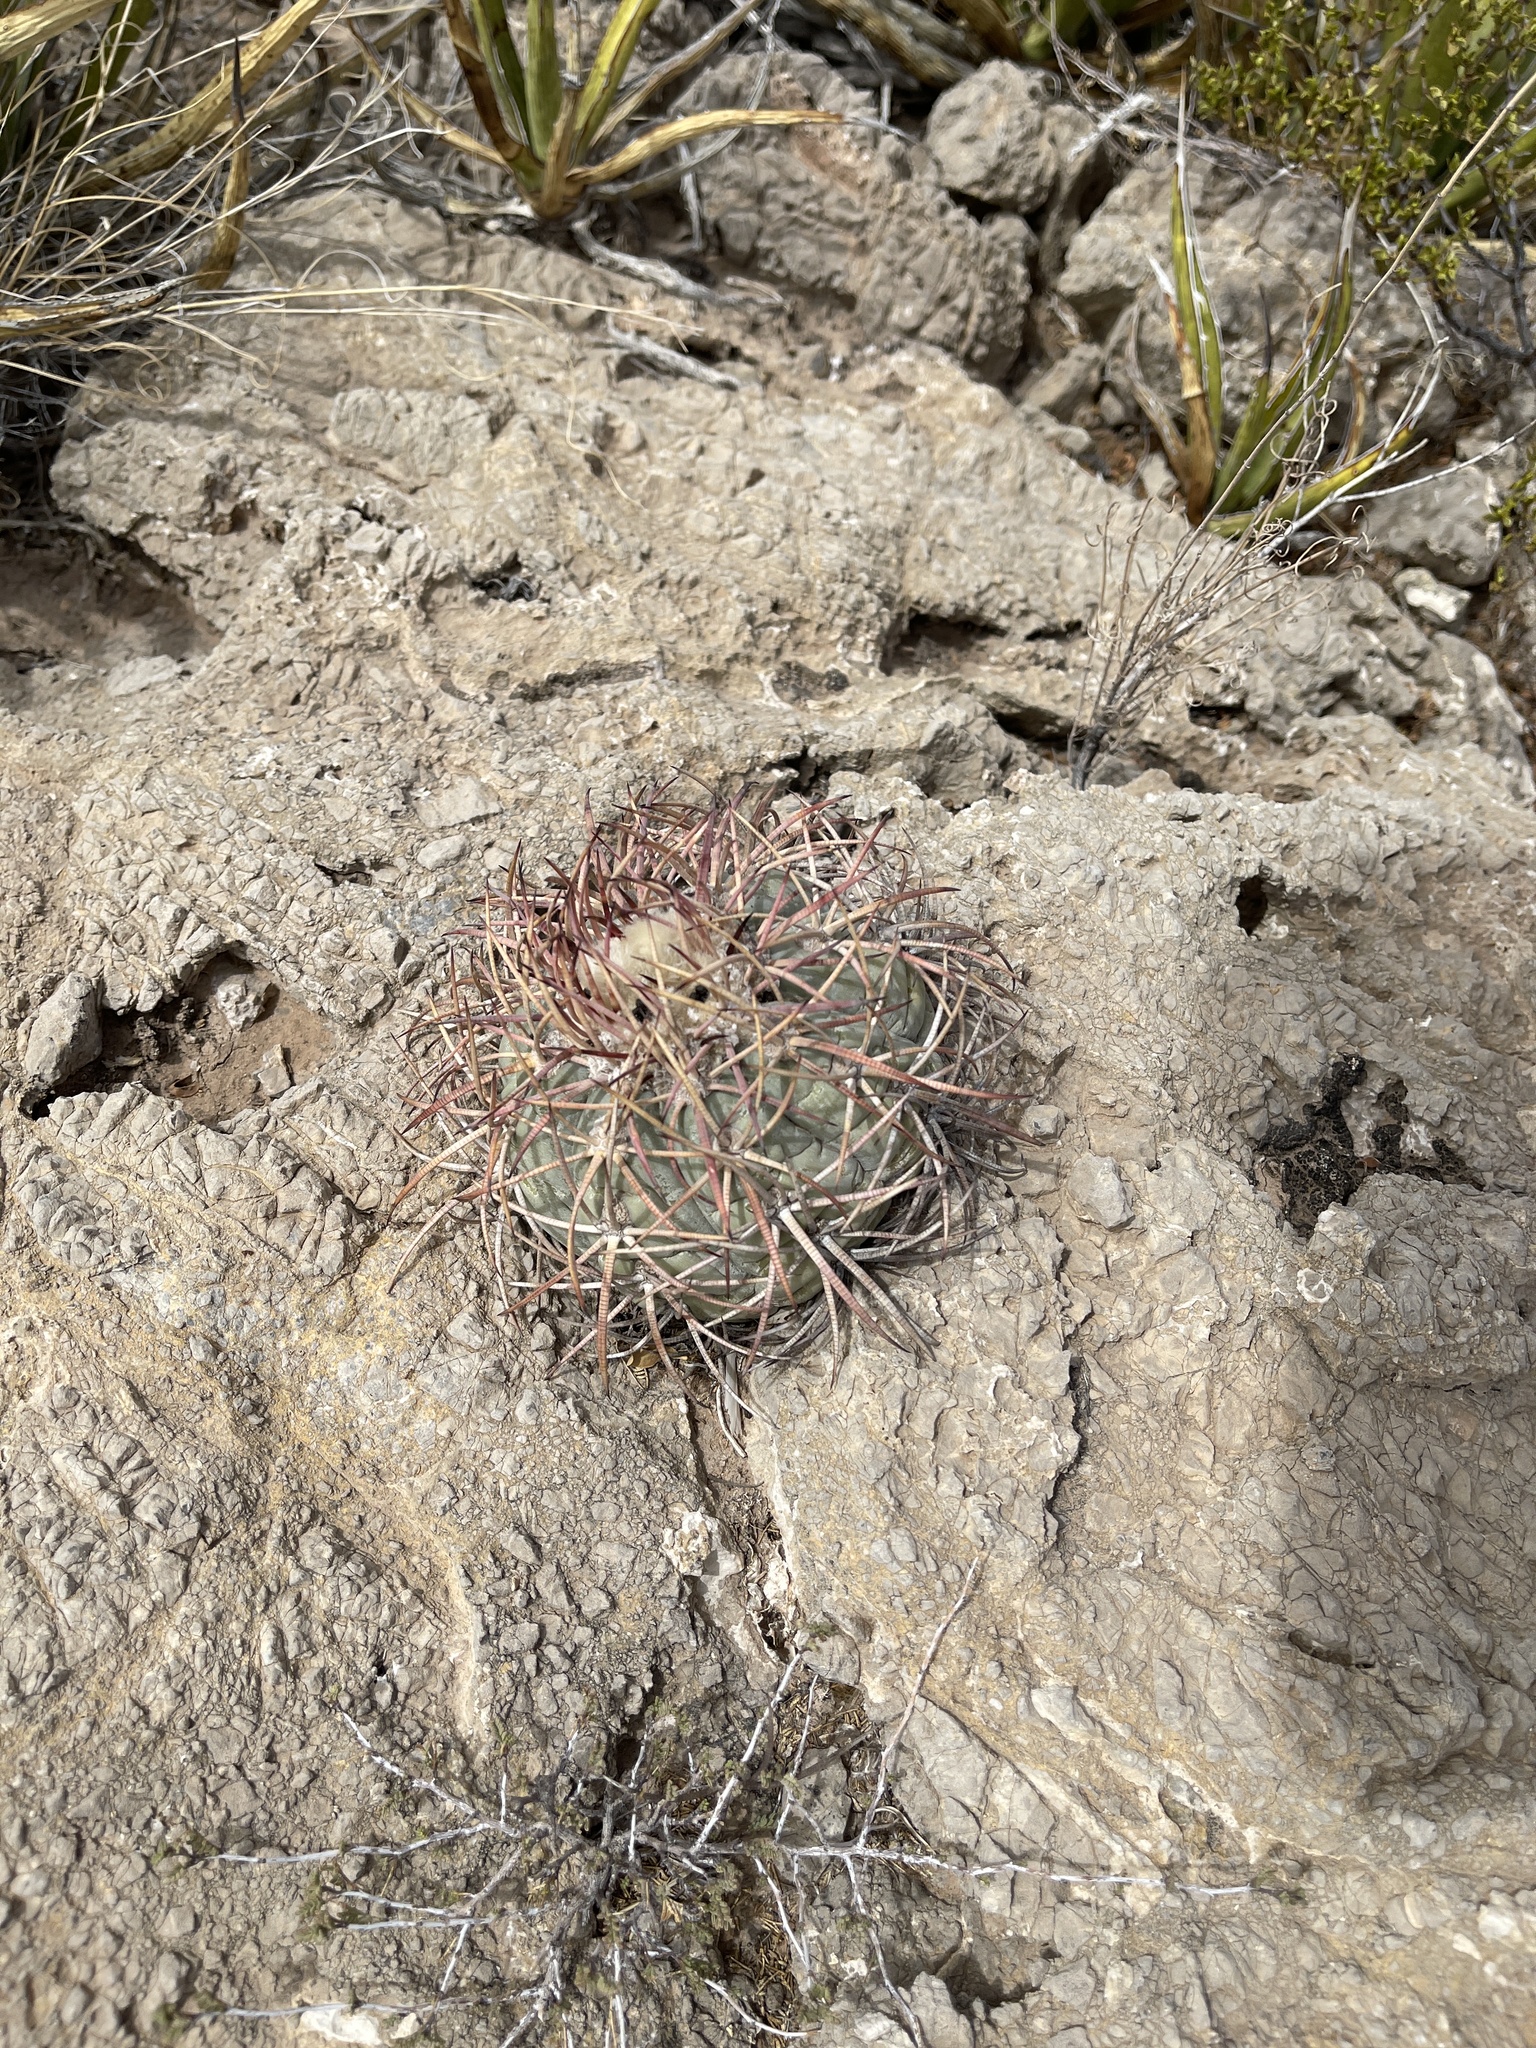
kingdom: Plantae
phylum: Tracheophyta
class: Magnoliopsida
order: Caryophyllales
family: Cactaceae
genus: Echinocactus
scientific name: Echinocactus horizonthalonius
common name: Devilshead
